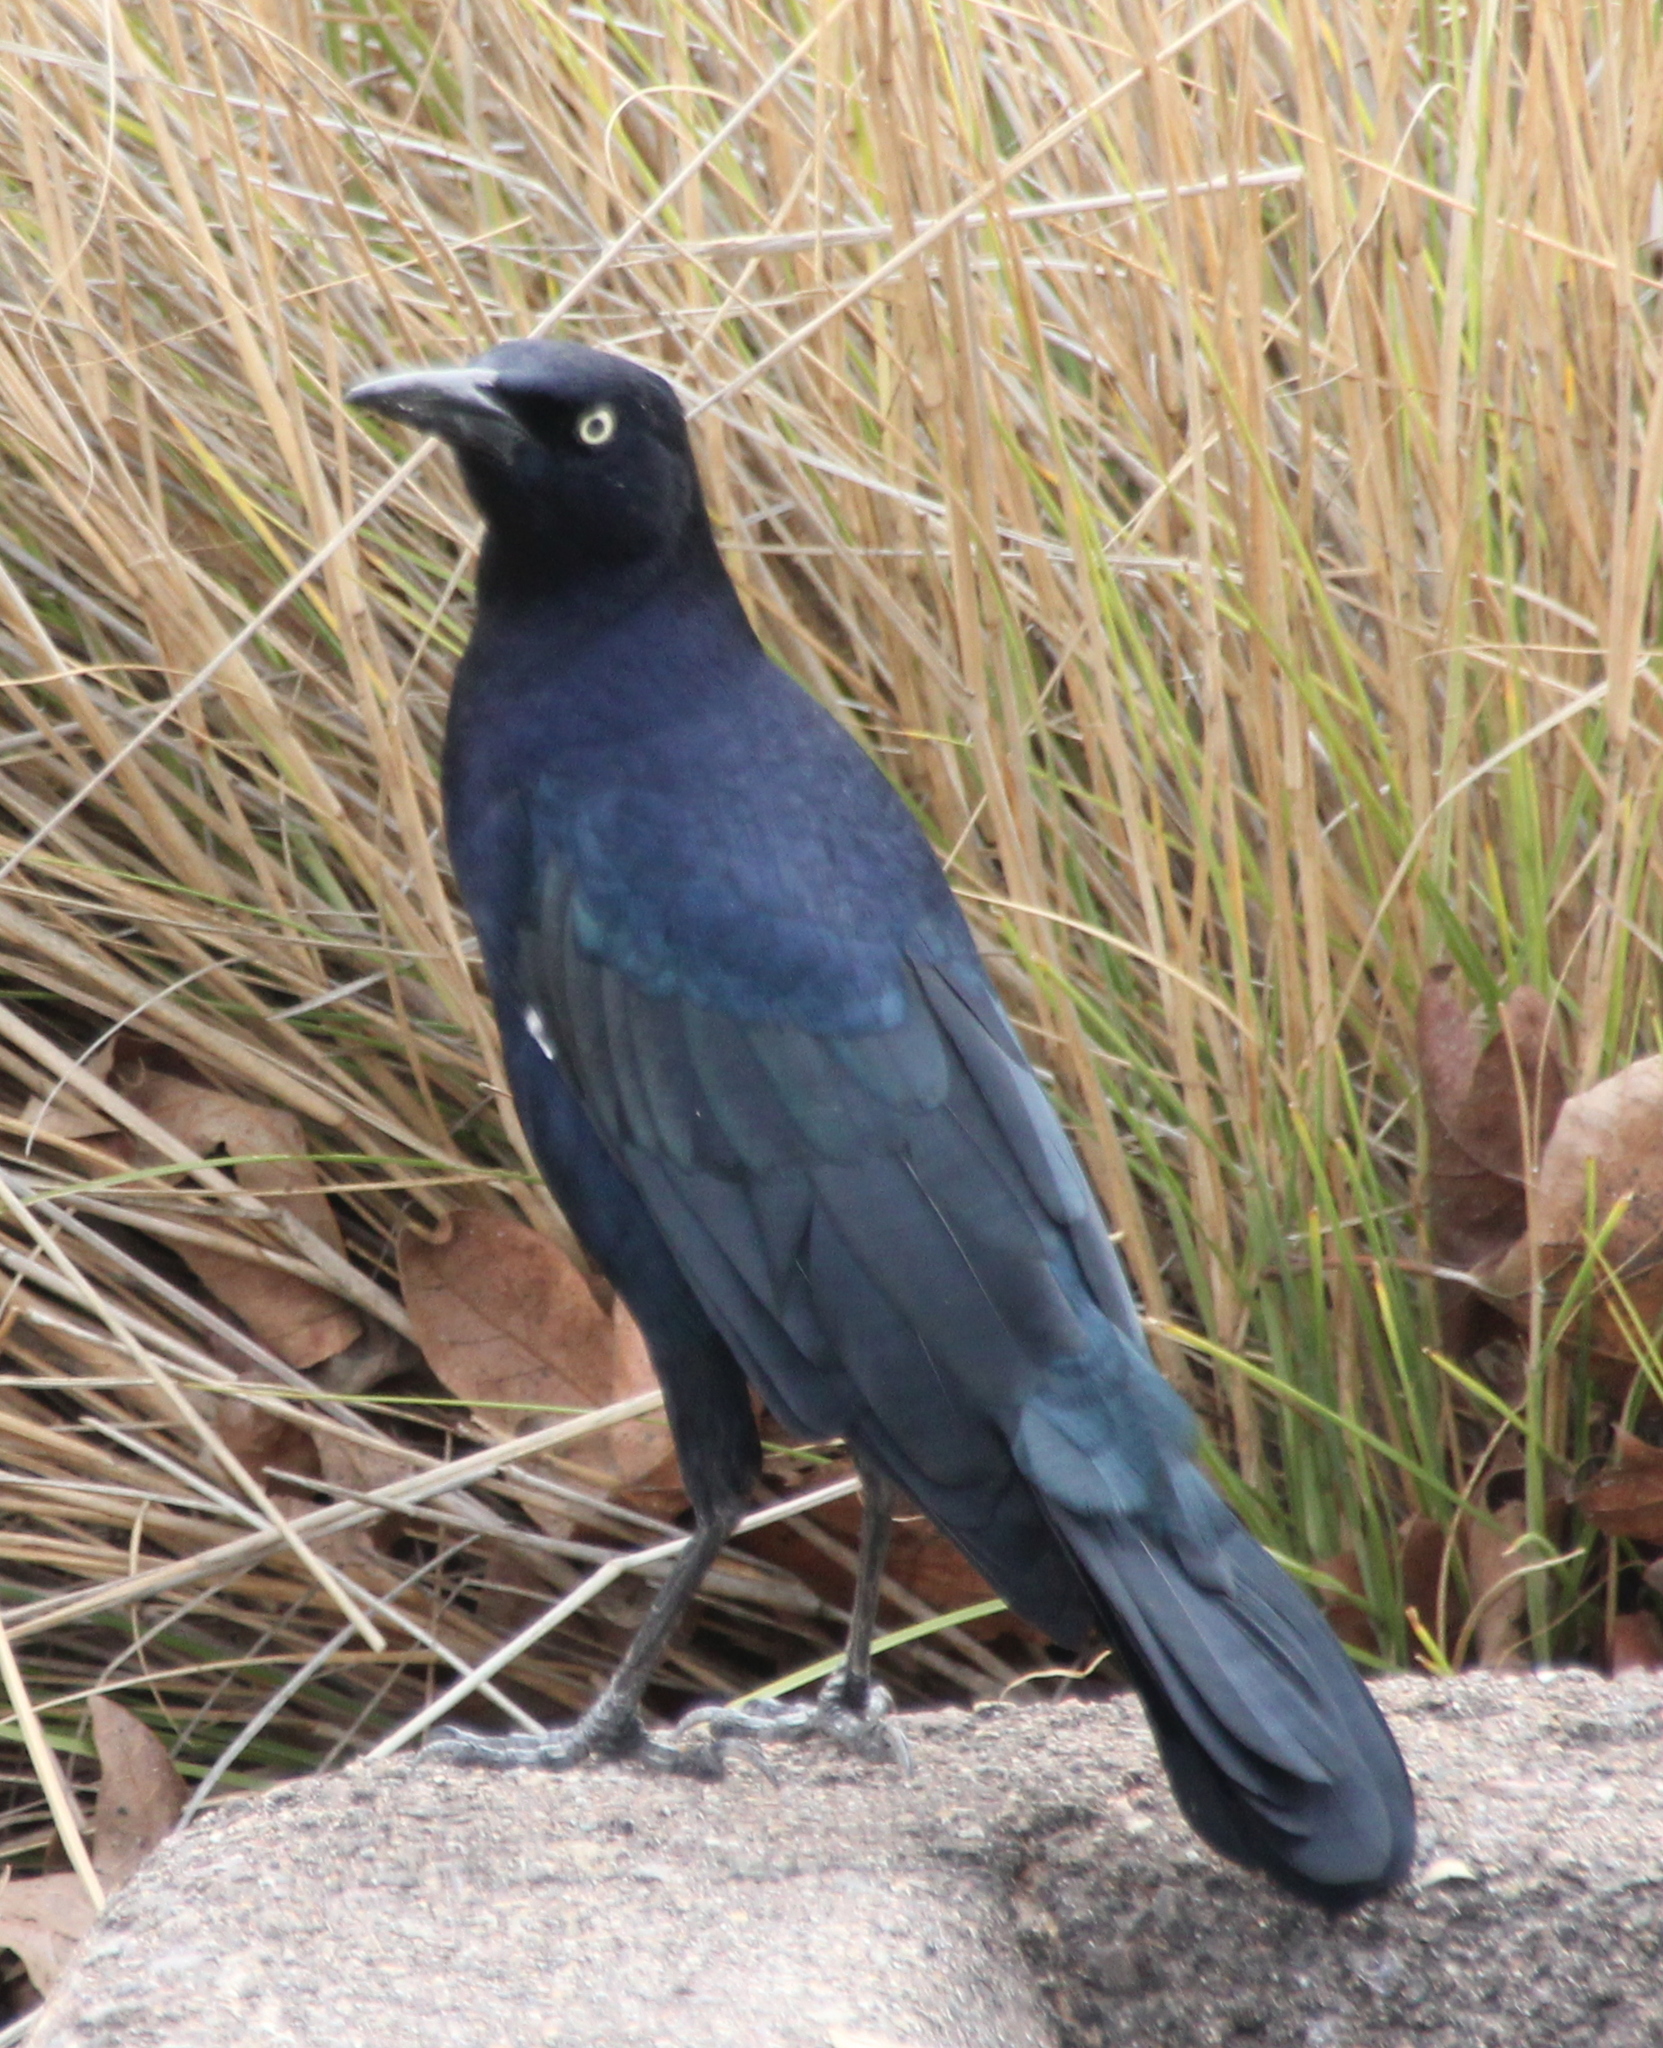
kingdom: Animalia
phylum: Chordata
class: Aves
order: Passeriformes
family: Icteridae
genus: Quiscalus
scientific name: Quiscalus mexicanus
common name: Great-tailed grackle
